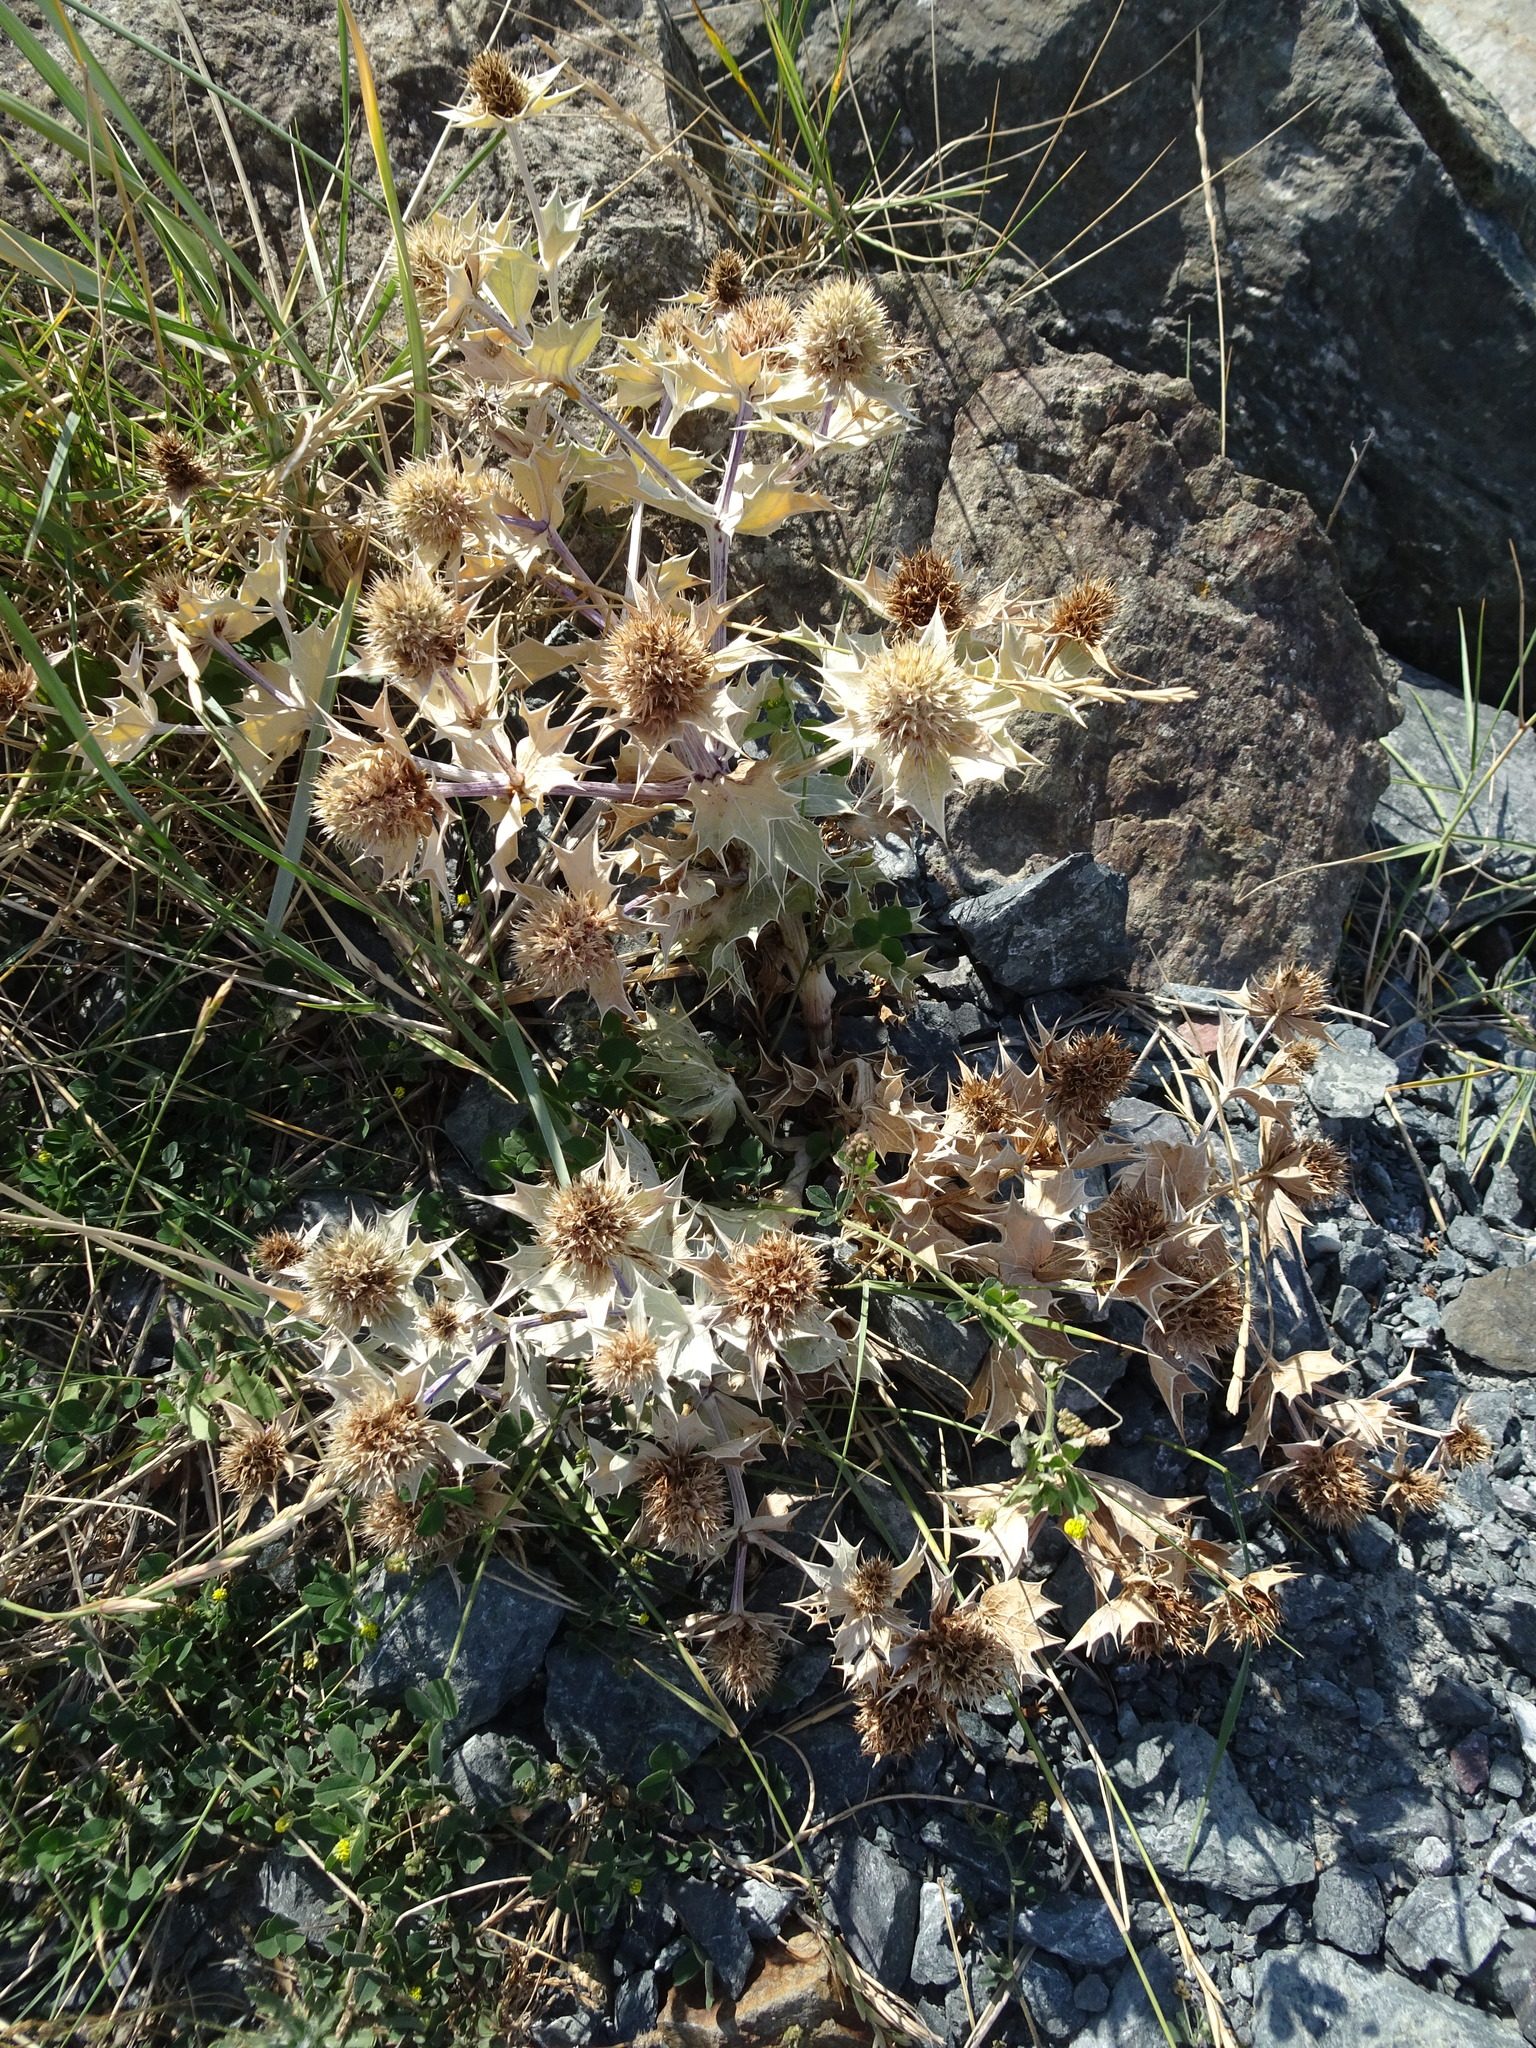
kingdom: Plantae
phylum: Tracheophyta
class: Magnoliopsida
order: Apiales
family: Apiaceae
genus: Eryngium
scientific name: Eryngium maritimum
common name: Sea-holly
